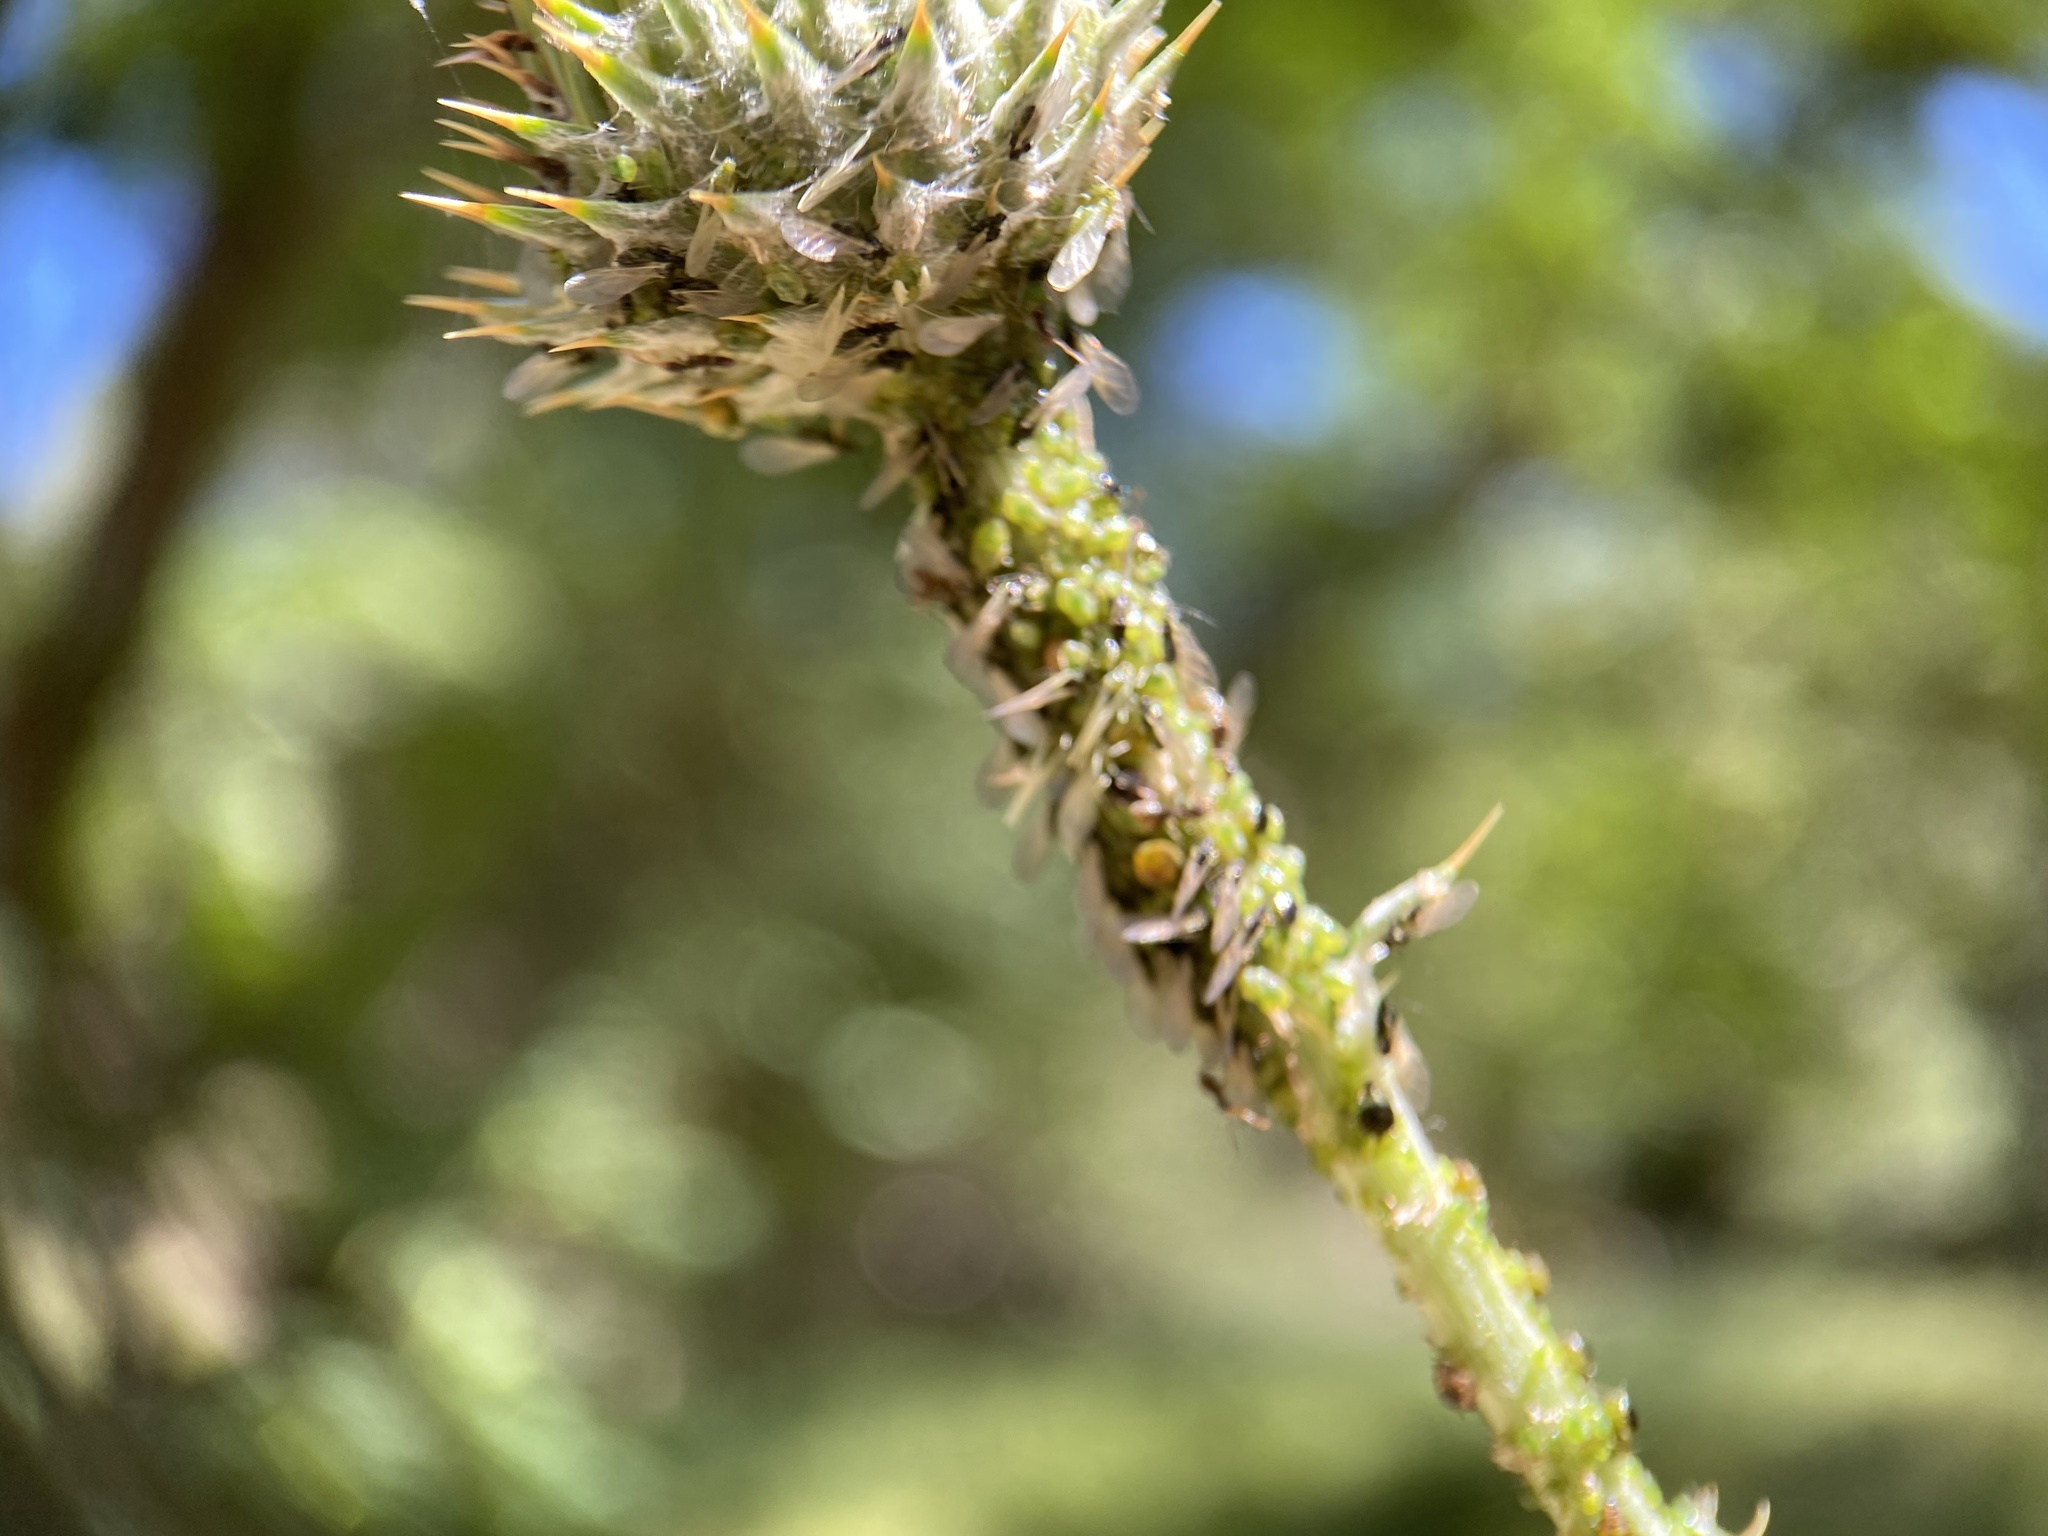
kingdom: Animalia
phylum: Arthropoda
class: Insecta
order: Hymenoptera
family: Formicidae
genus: Brachymyrmex
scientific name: Brachymyrmex patagonicus
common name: Dark rover ant
